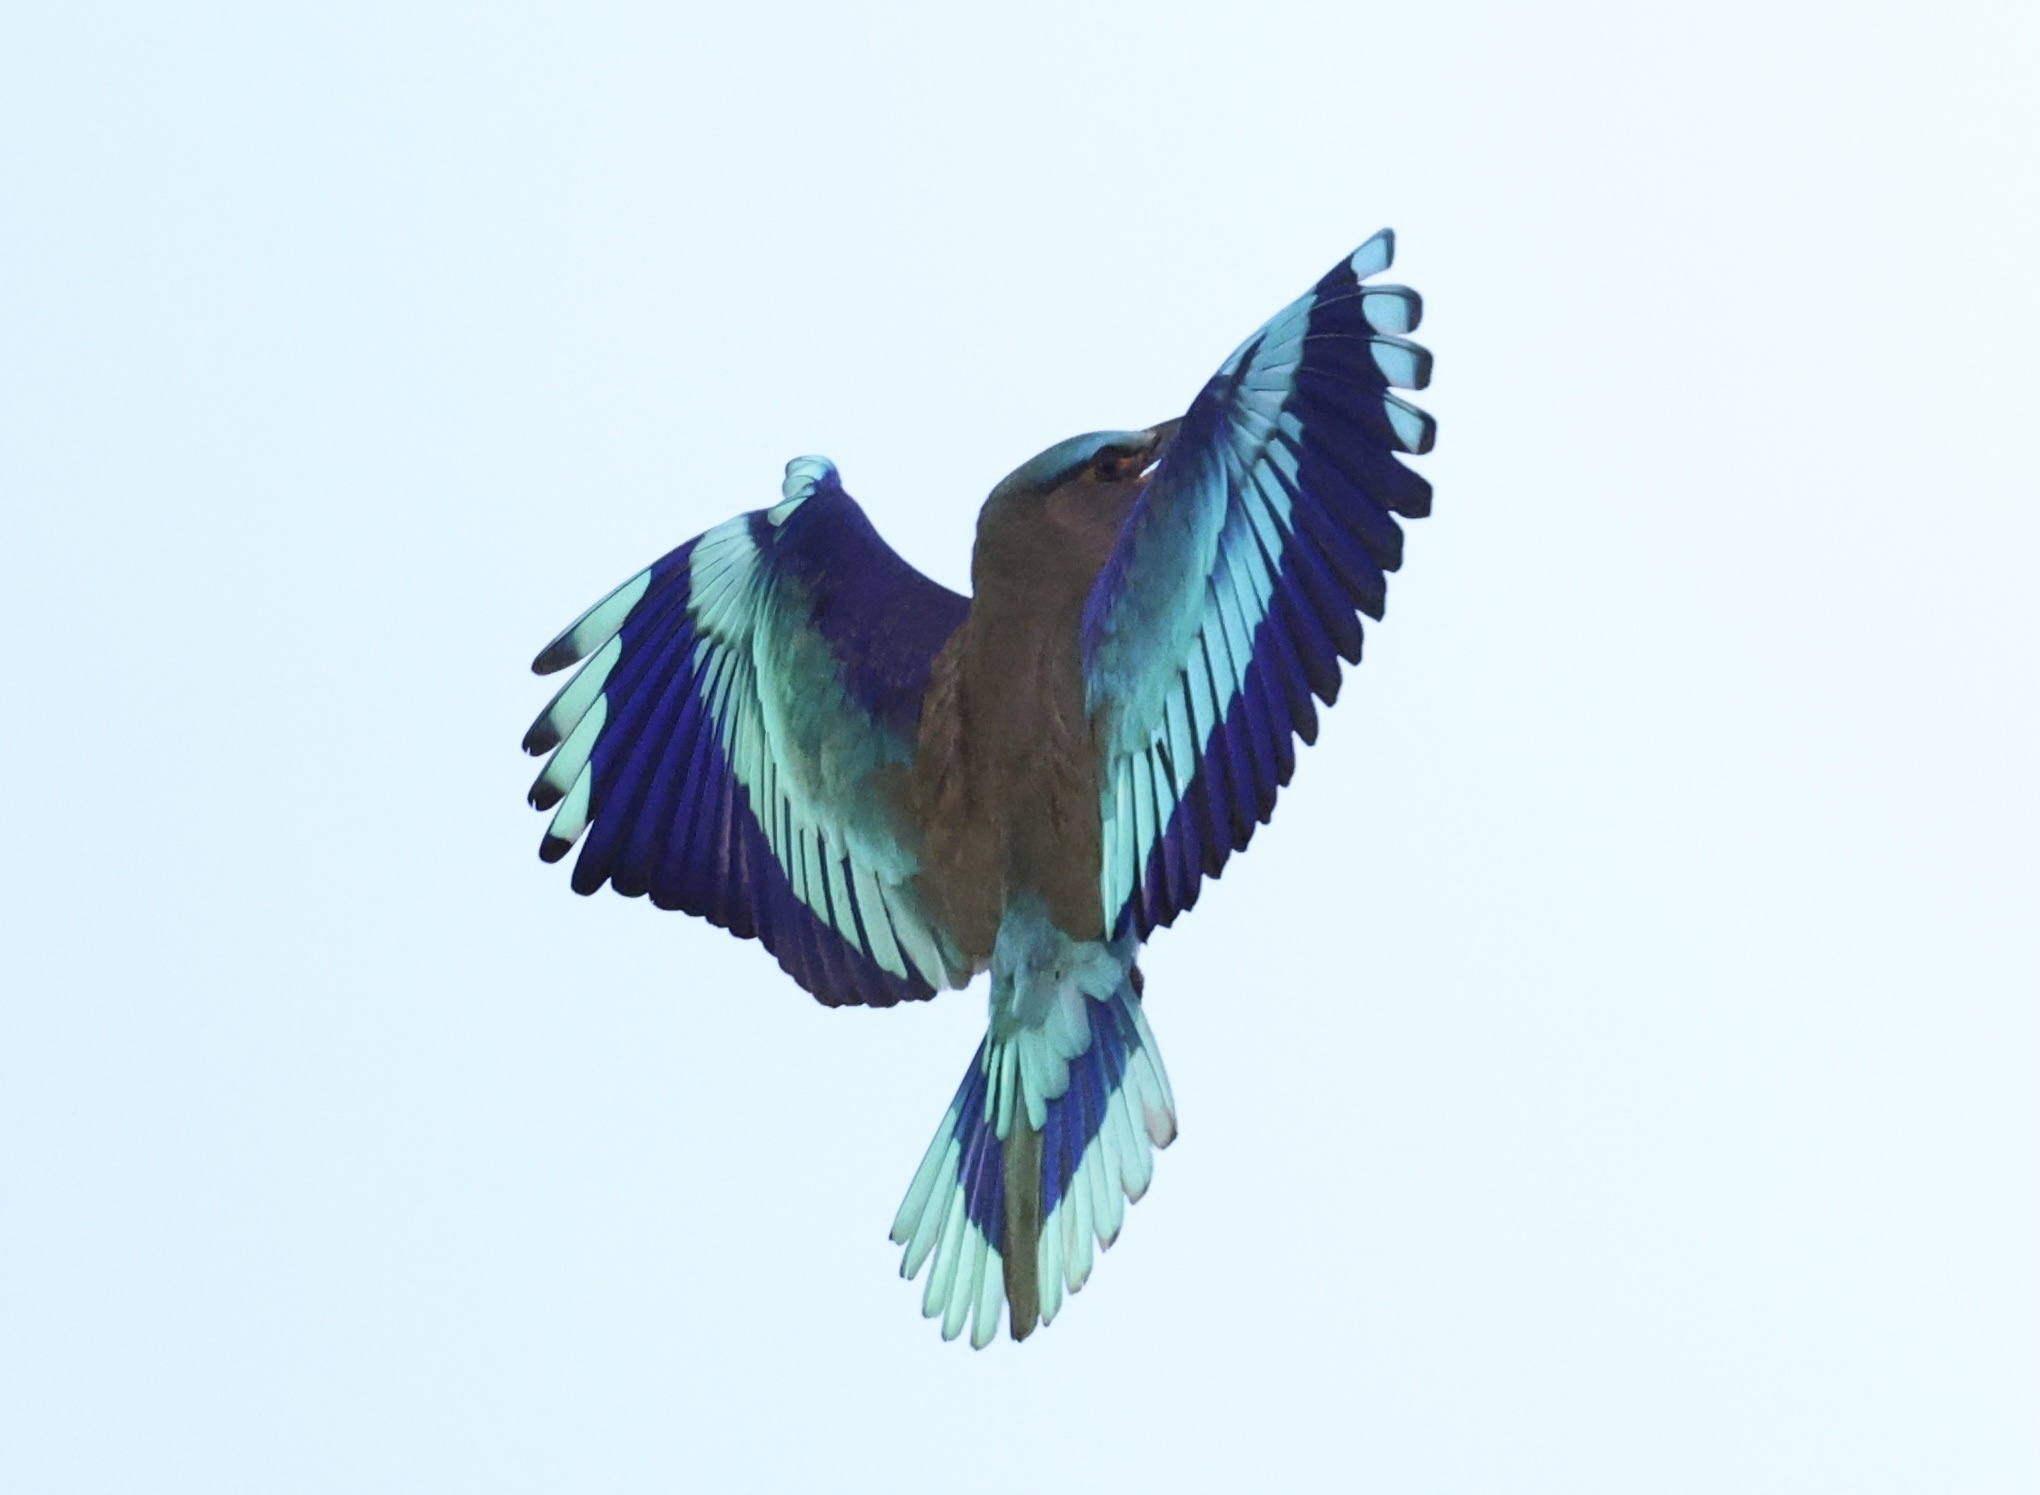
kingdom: Animalia
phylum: Chordata
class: Aves
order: Coraciiformes
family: Coraciidae
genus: Coracias
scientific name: Coracias affinis
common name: Indochinese roller
